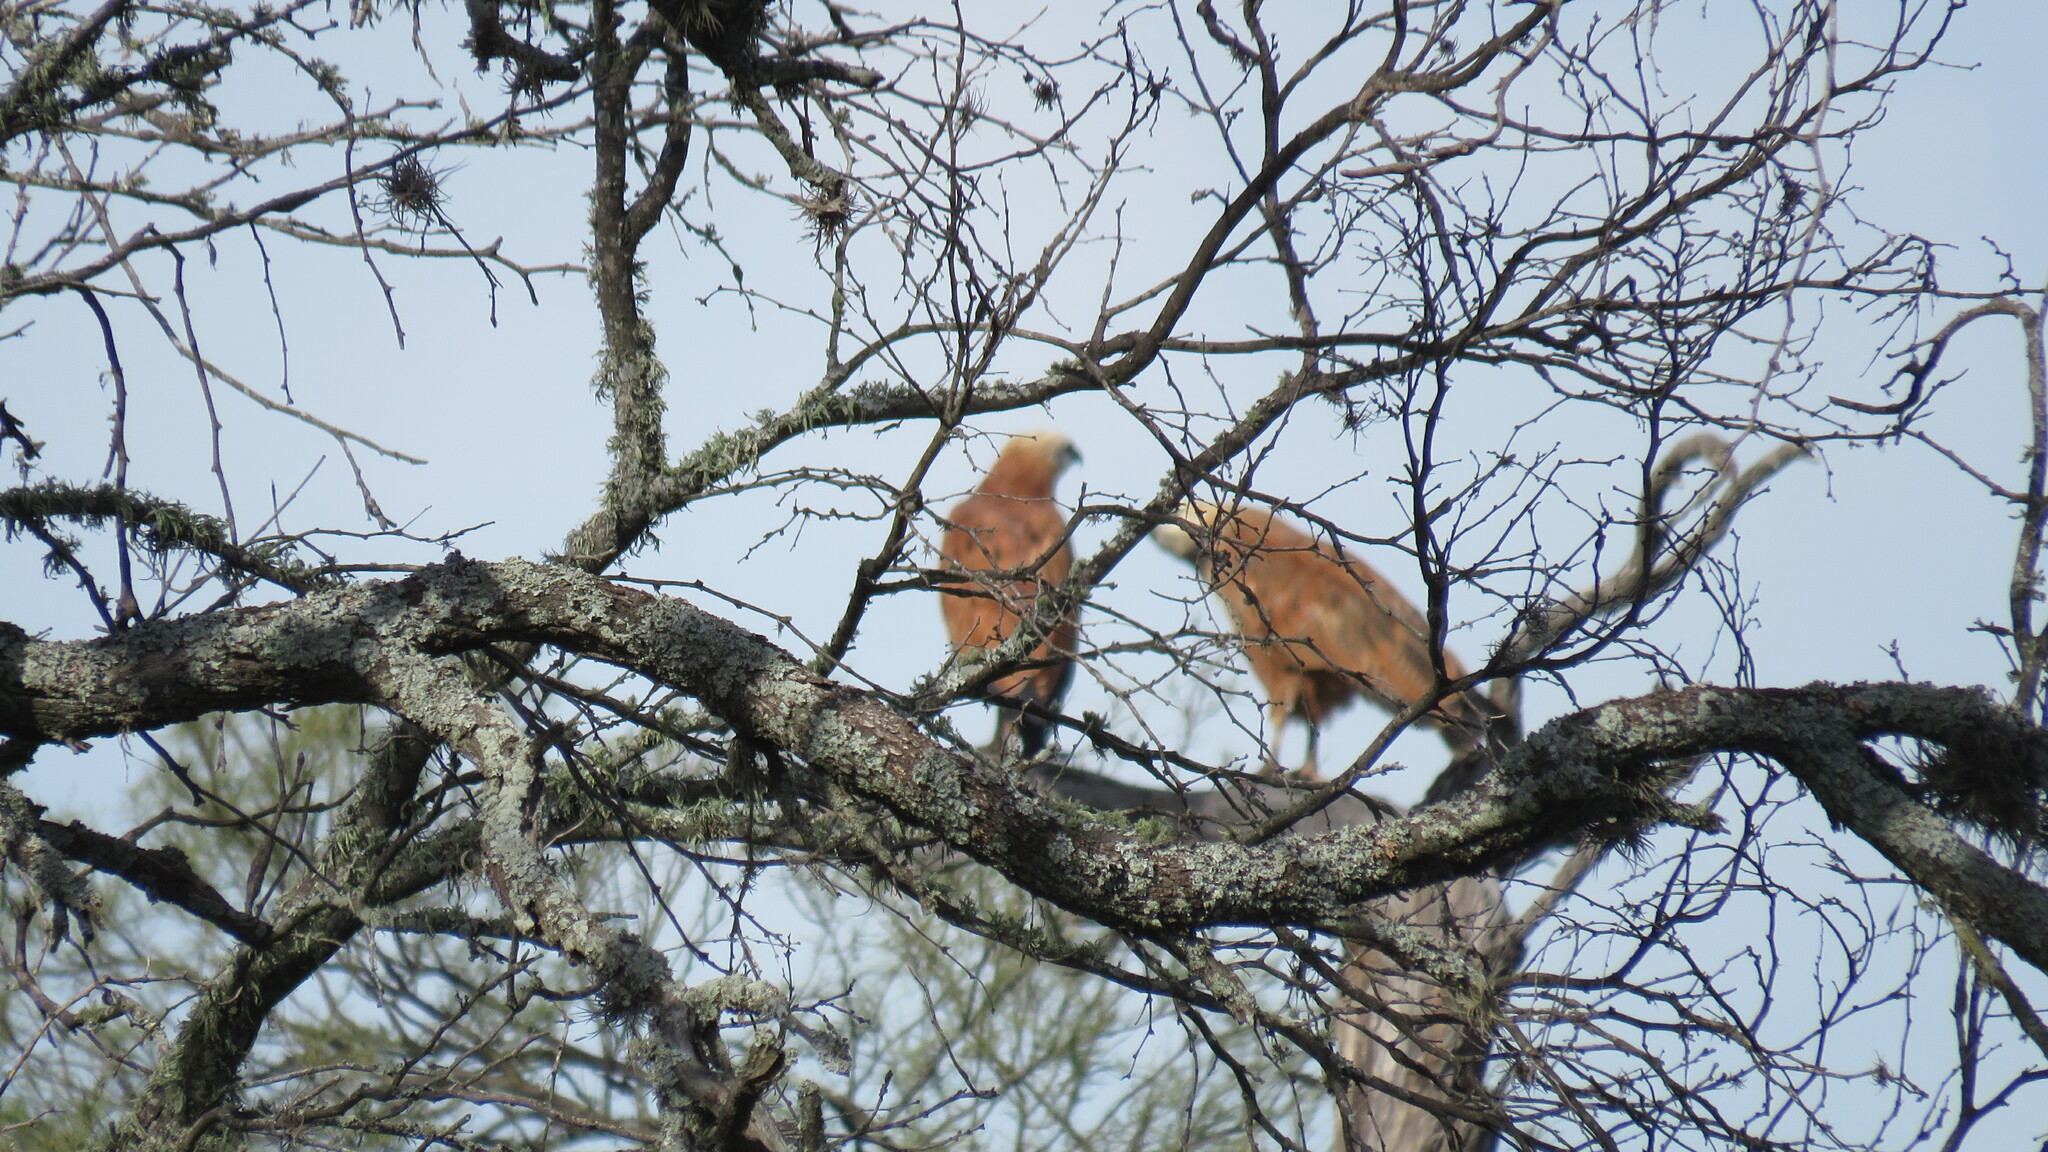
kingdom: Animalia
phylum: Chordata
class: Aves
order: Accipitriformes
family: Accipitridae
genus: Busarellus
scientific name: Busarellus nigricollis
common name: Black-collared hawk
